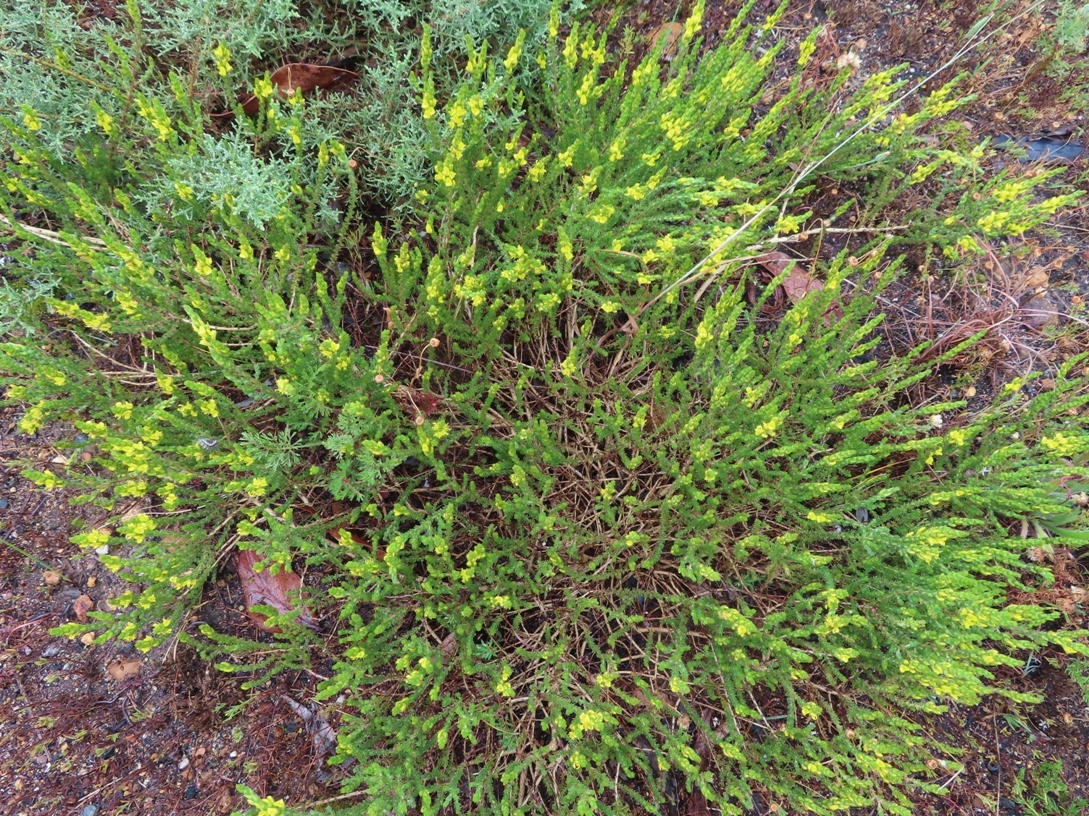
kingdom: Plantae
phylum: Tracheophyta
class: Magnoliopsida
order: Fabales
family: Fabaceae
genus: Aspalathus
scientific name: Aspalathus ericifolia
